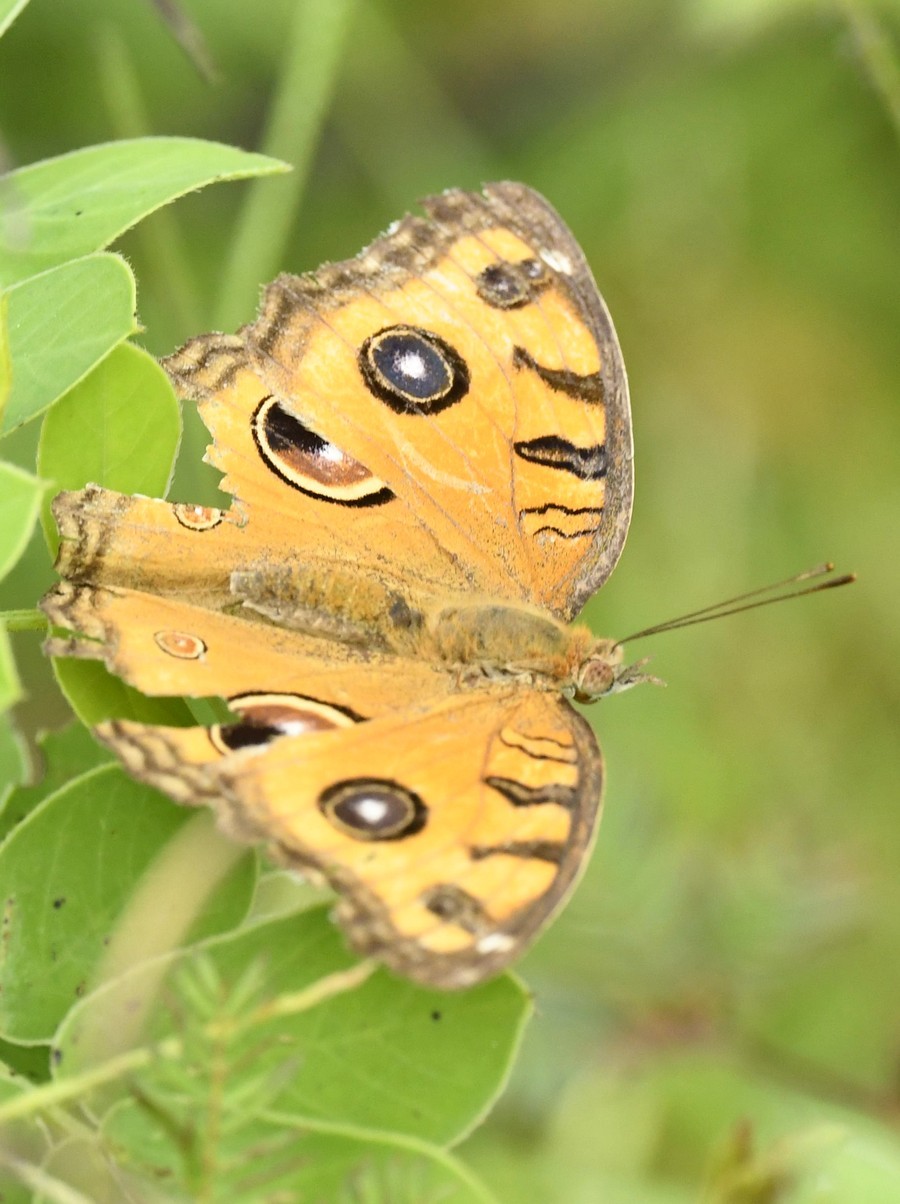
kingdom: Animalia
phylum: Arthropoda
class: Insecta
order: Lepidoptera
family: Nymphalidae
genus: Junonia
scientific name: Junonia almana
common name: Peacock pansy
